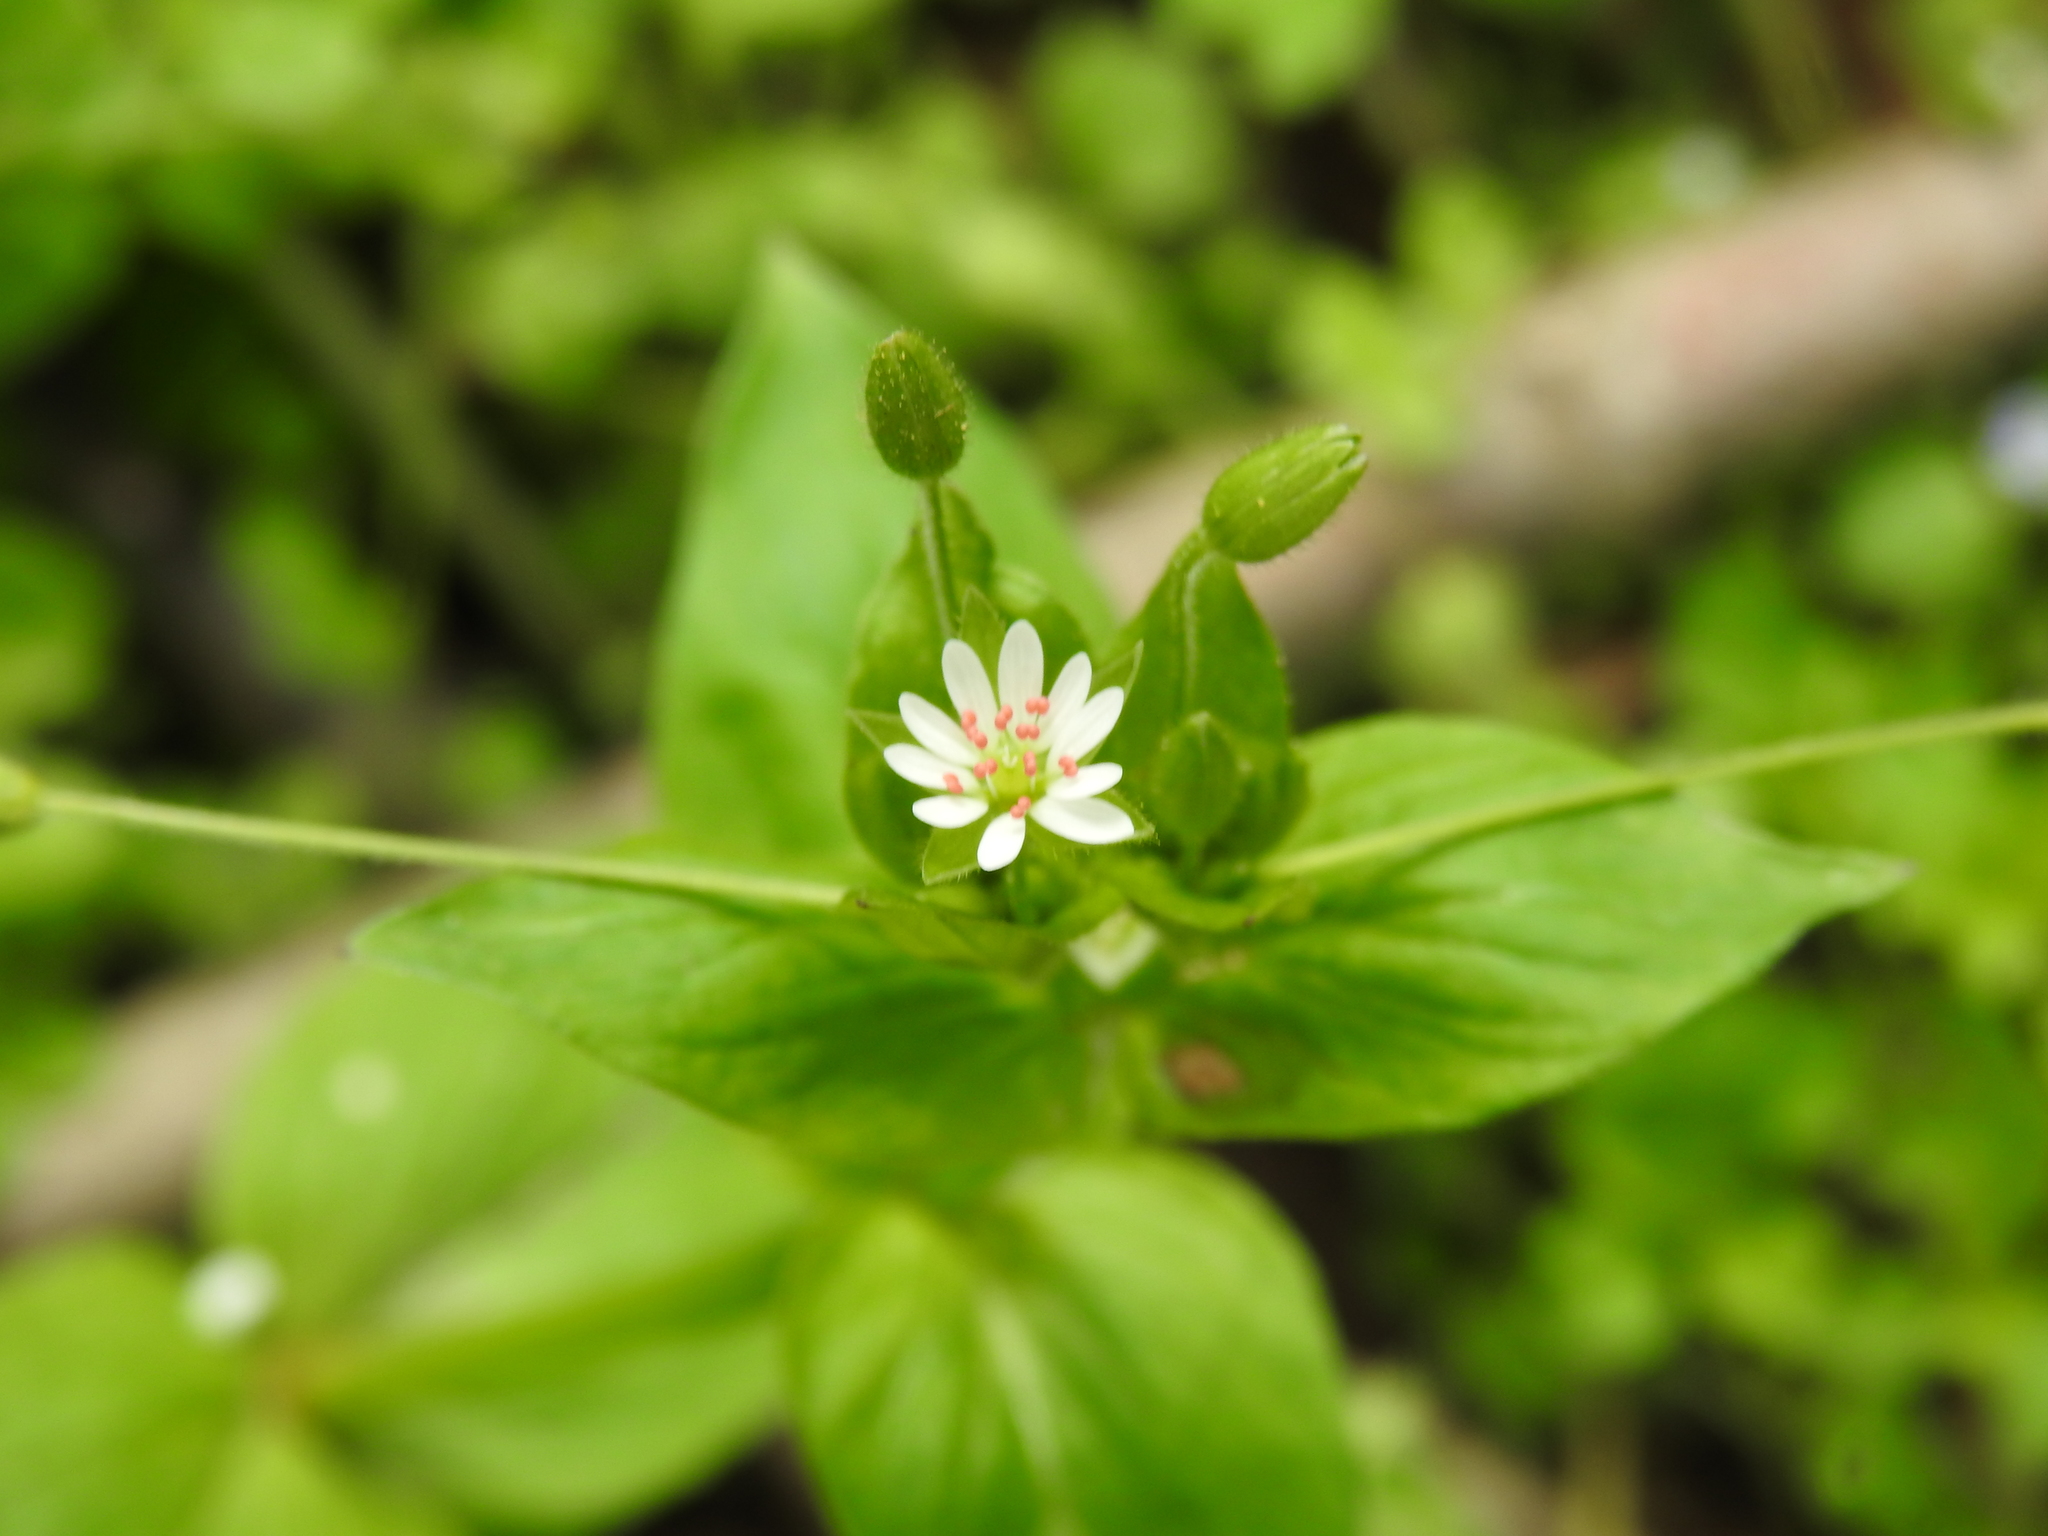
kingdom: Plantae
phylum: Tracheophyta
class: Magnoliopsida
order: Caryophyllales
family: Caryophyllaceae
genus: Stellaria
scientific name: Stellaria media
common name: Common chickweed
